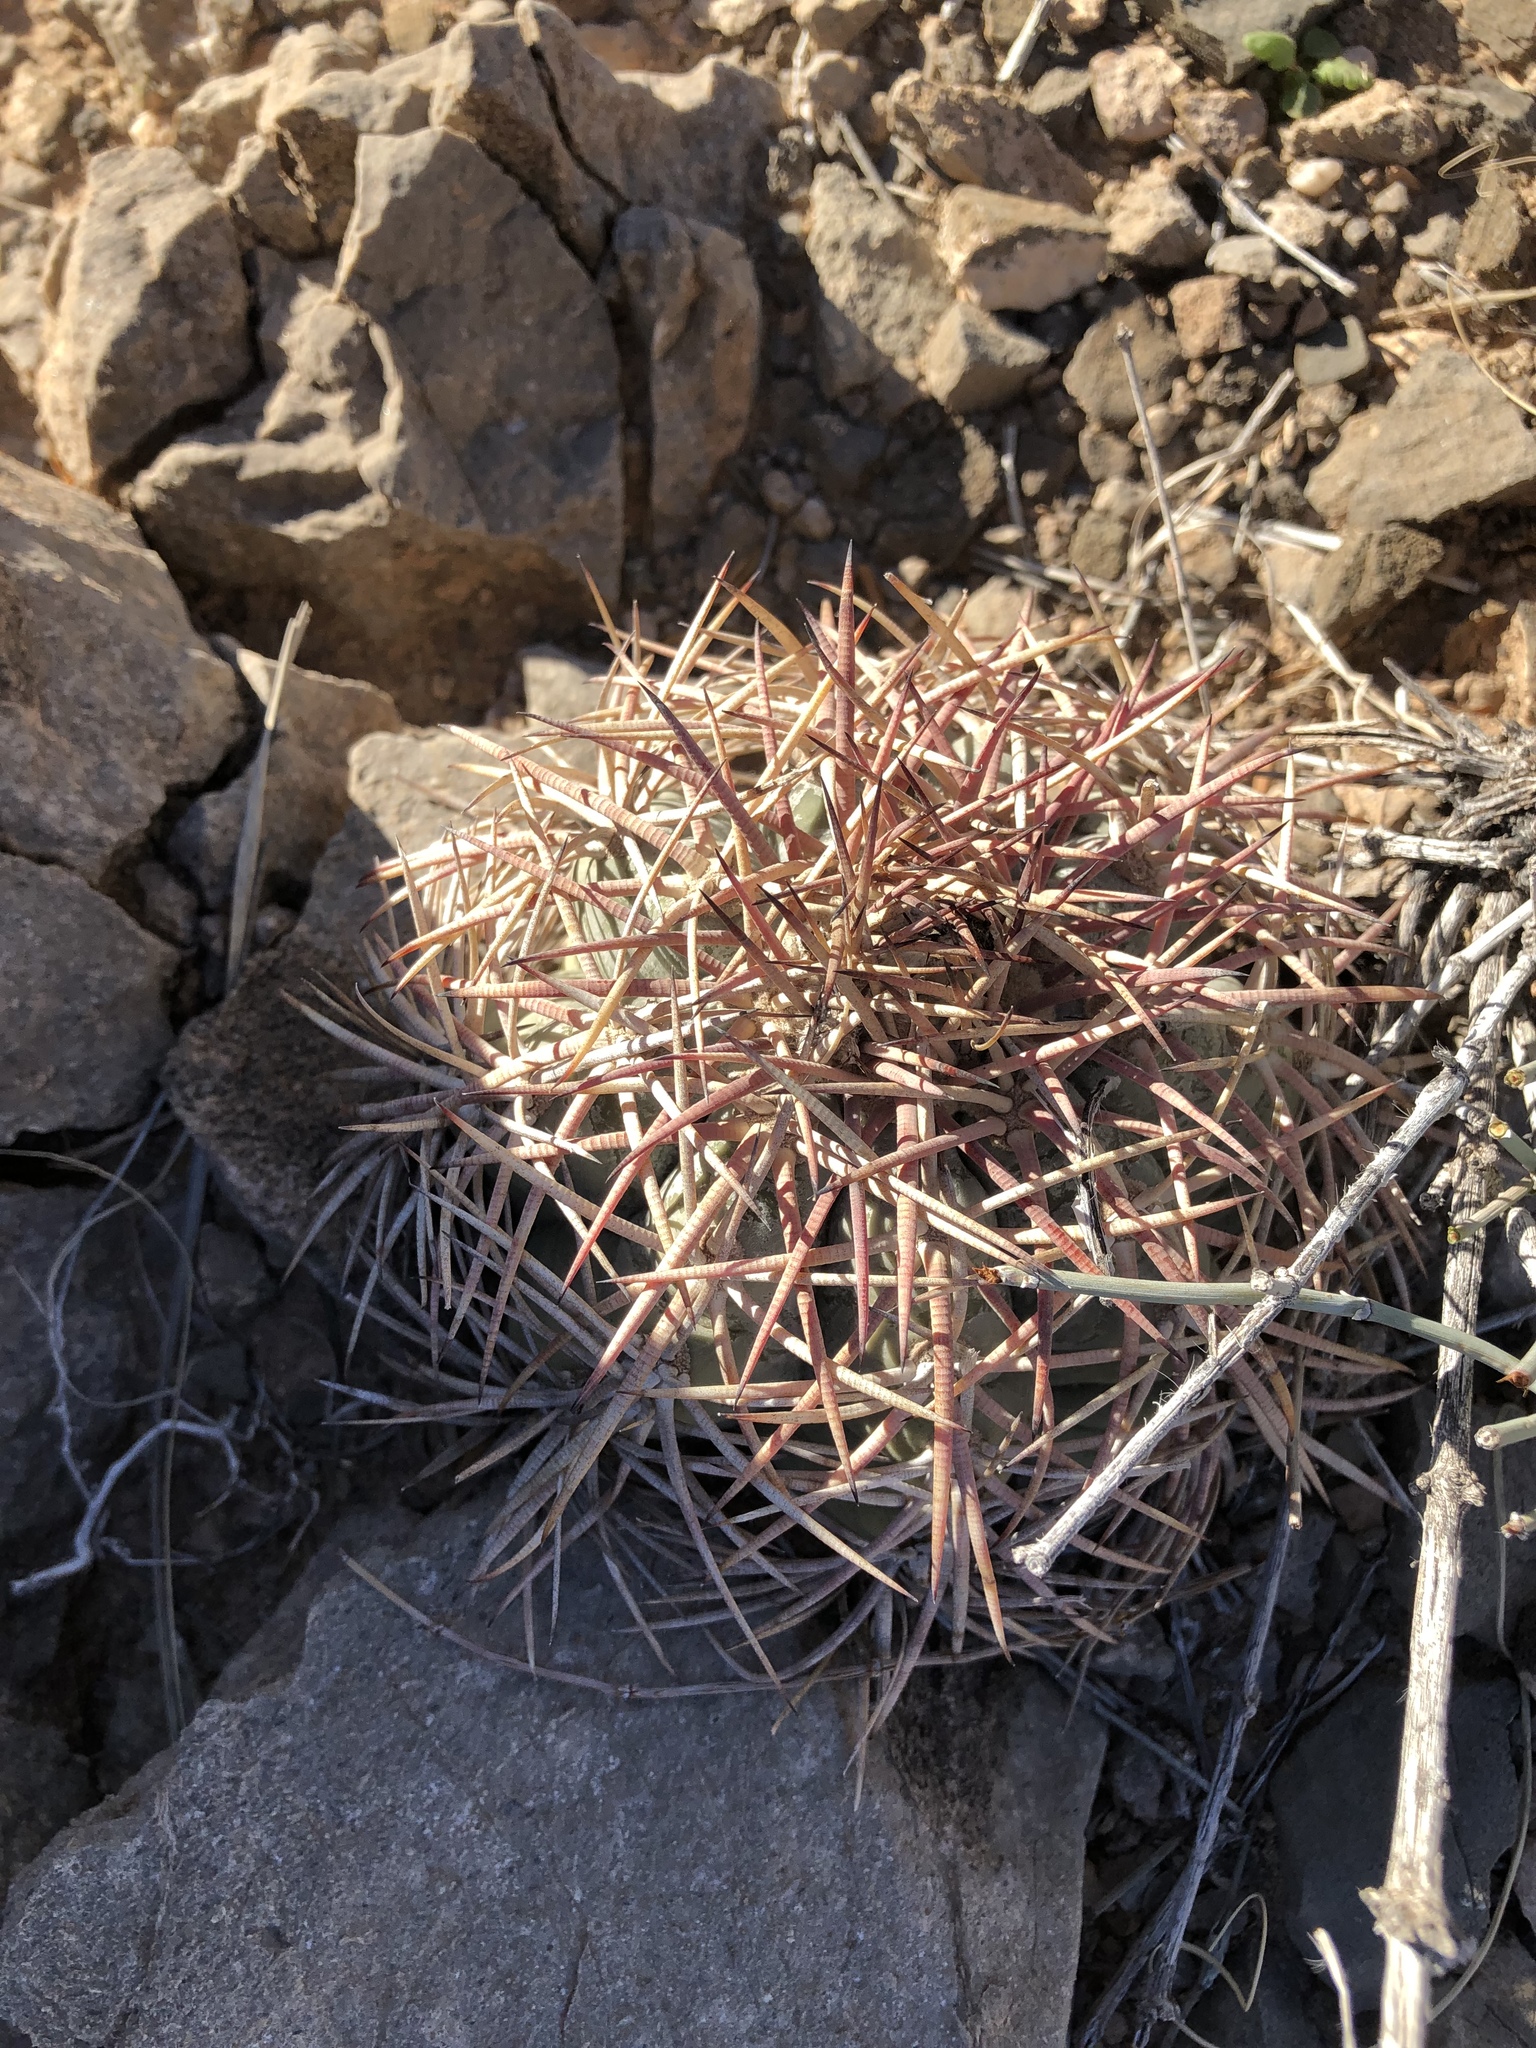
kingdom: Plantae
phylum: Tracheophyta
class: Magnoliopsida
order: Caryophyllales
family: Cactaceae
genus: Echinocactus
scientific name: Echinocactus horizonthalonius
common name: Devilshead
